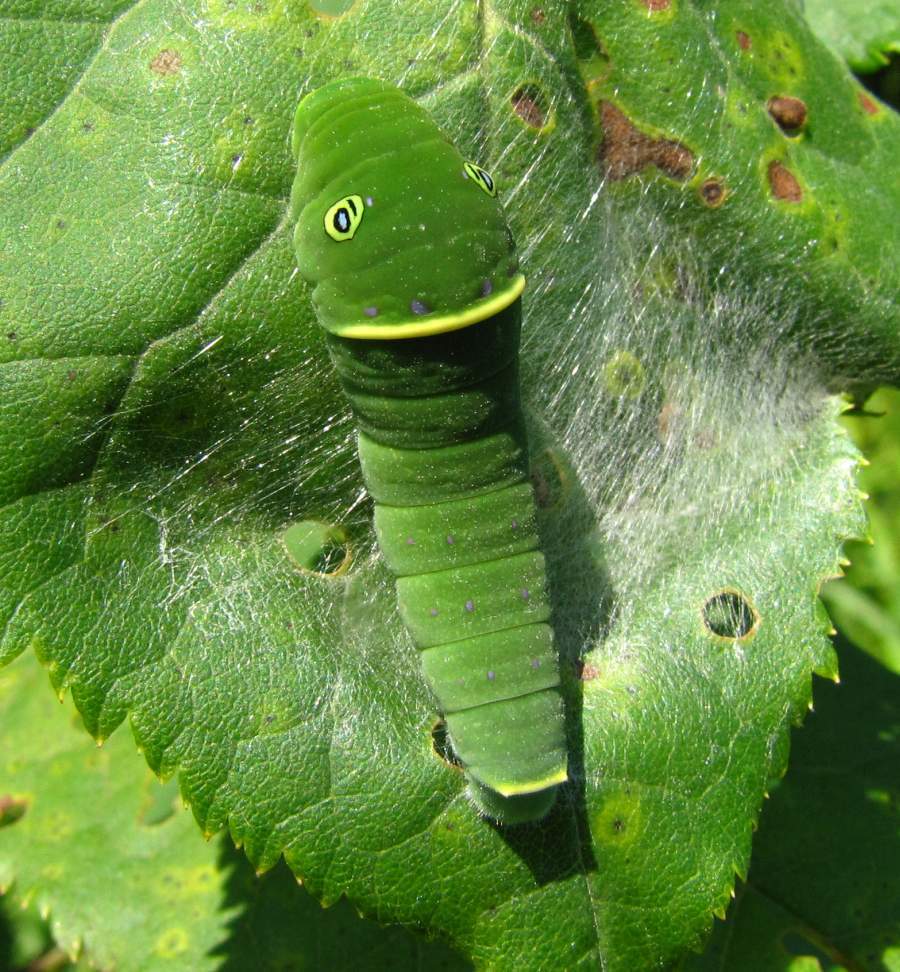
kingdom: Animalia
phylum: Arthropoda
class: Insecta
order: Lepidoptera
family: Papilionidae
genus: Papilio
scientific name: Papilio canadensis
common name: Canadian tiger swallowtail
